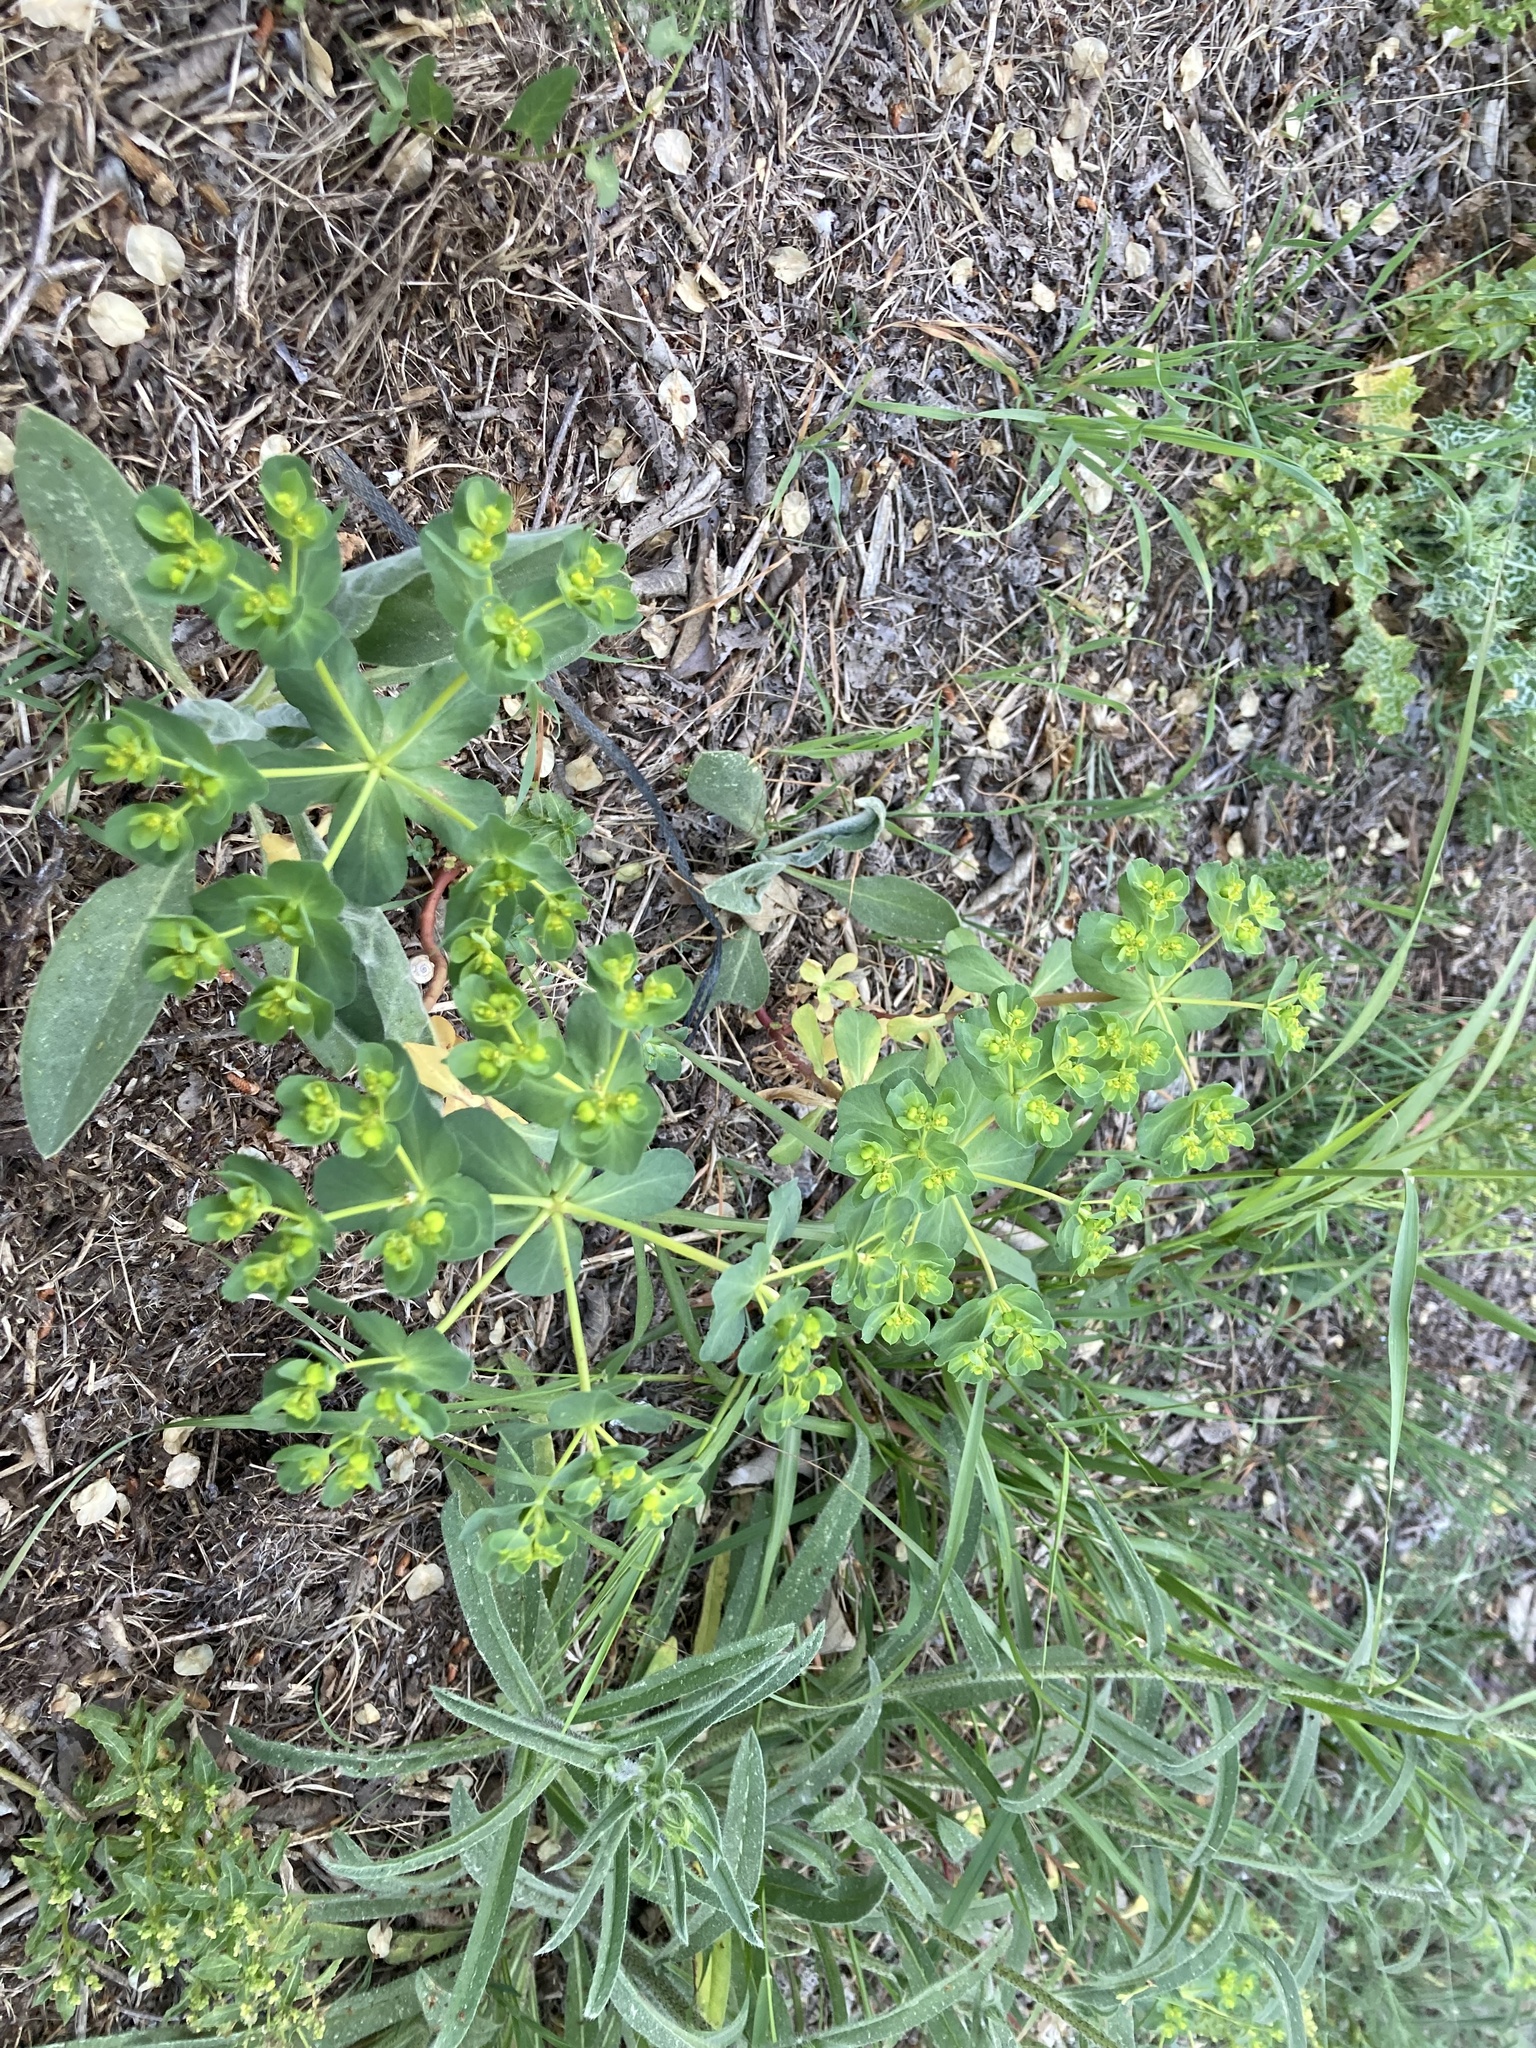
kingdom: Plantae
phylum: Tracheophyta
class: Magnoliopsida
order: Malpighiales
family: Euphorbiaceae
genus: Euphorbia
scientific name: Euphorbia helioscopia
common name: Sun spurge
